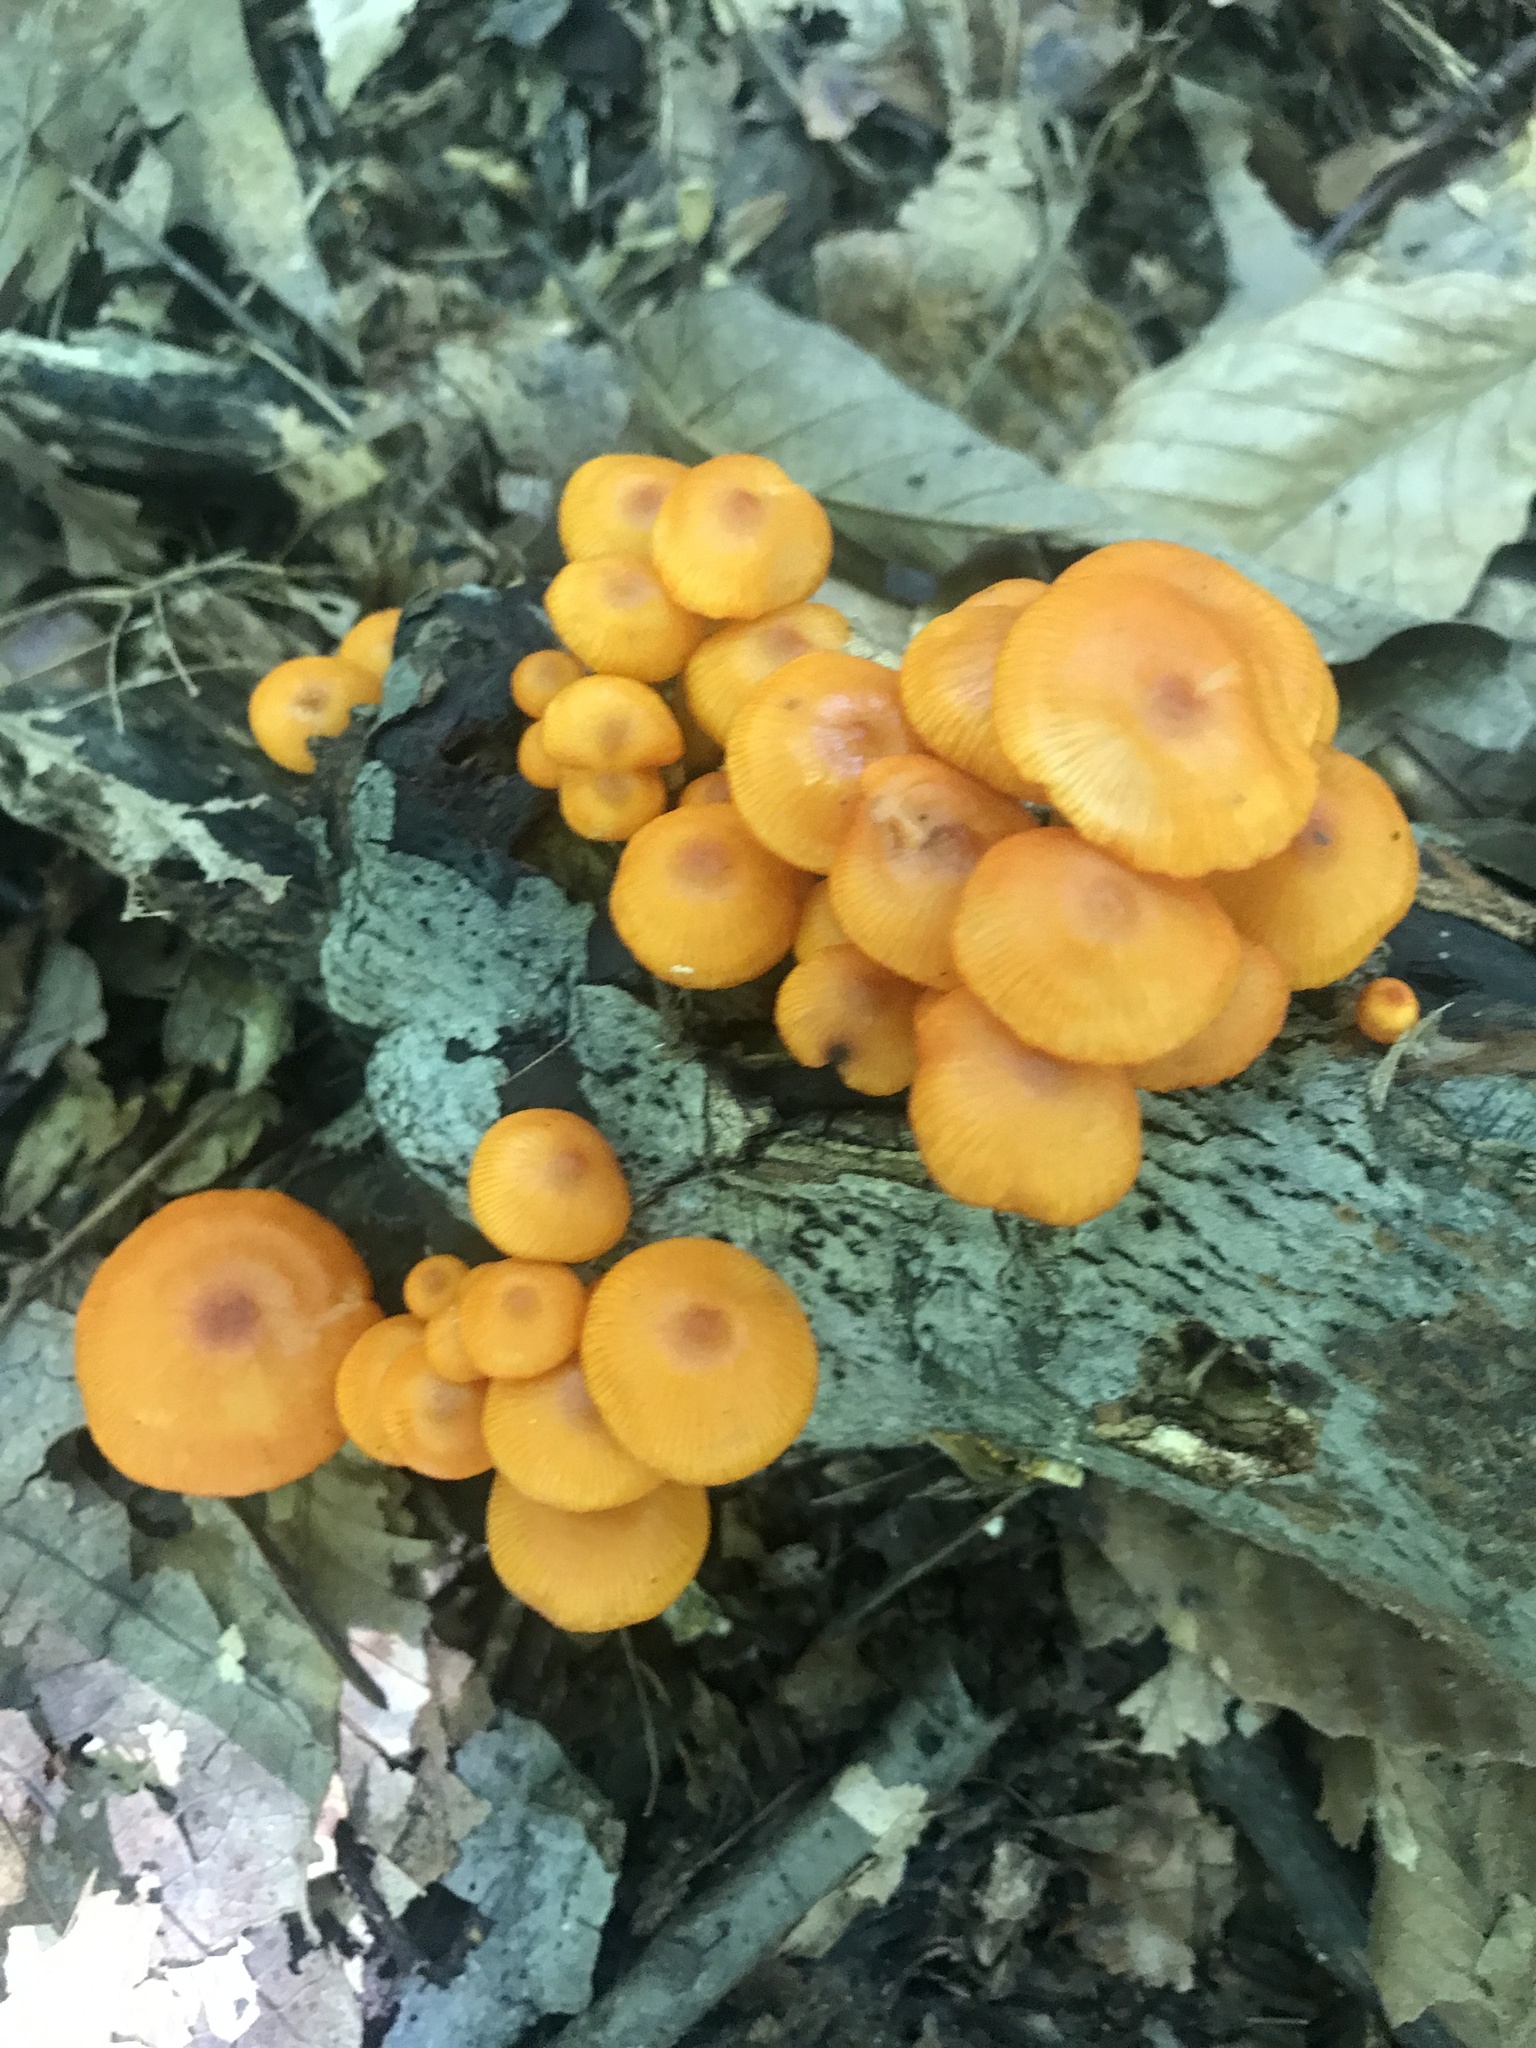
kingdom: Fungi
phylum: Basidiomycota
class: Agaricomycetes
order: Agaricales
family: Mycenaceae
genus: Mycena
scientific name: Mycena leaiana
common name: Orange mycena
